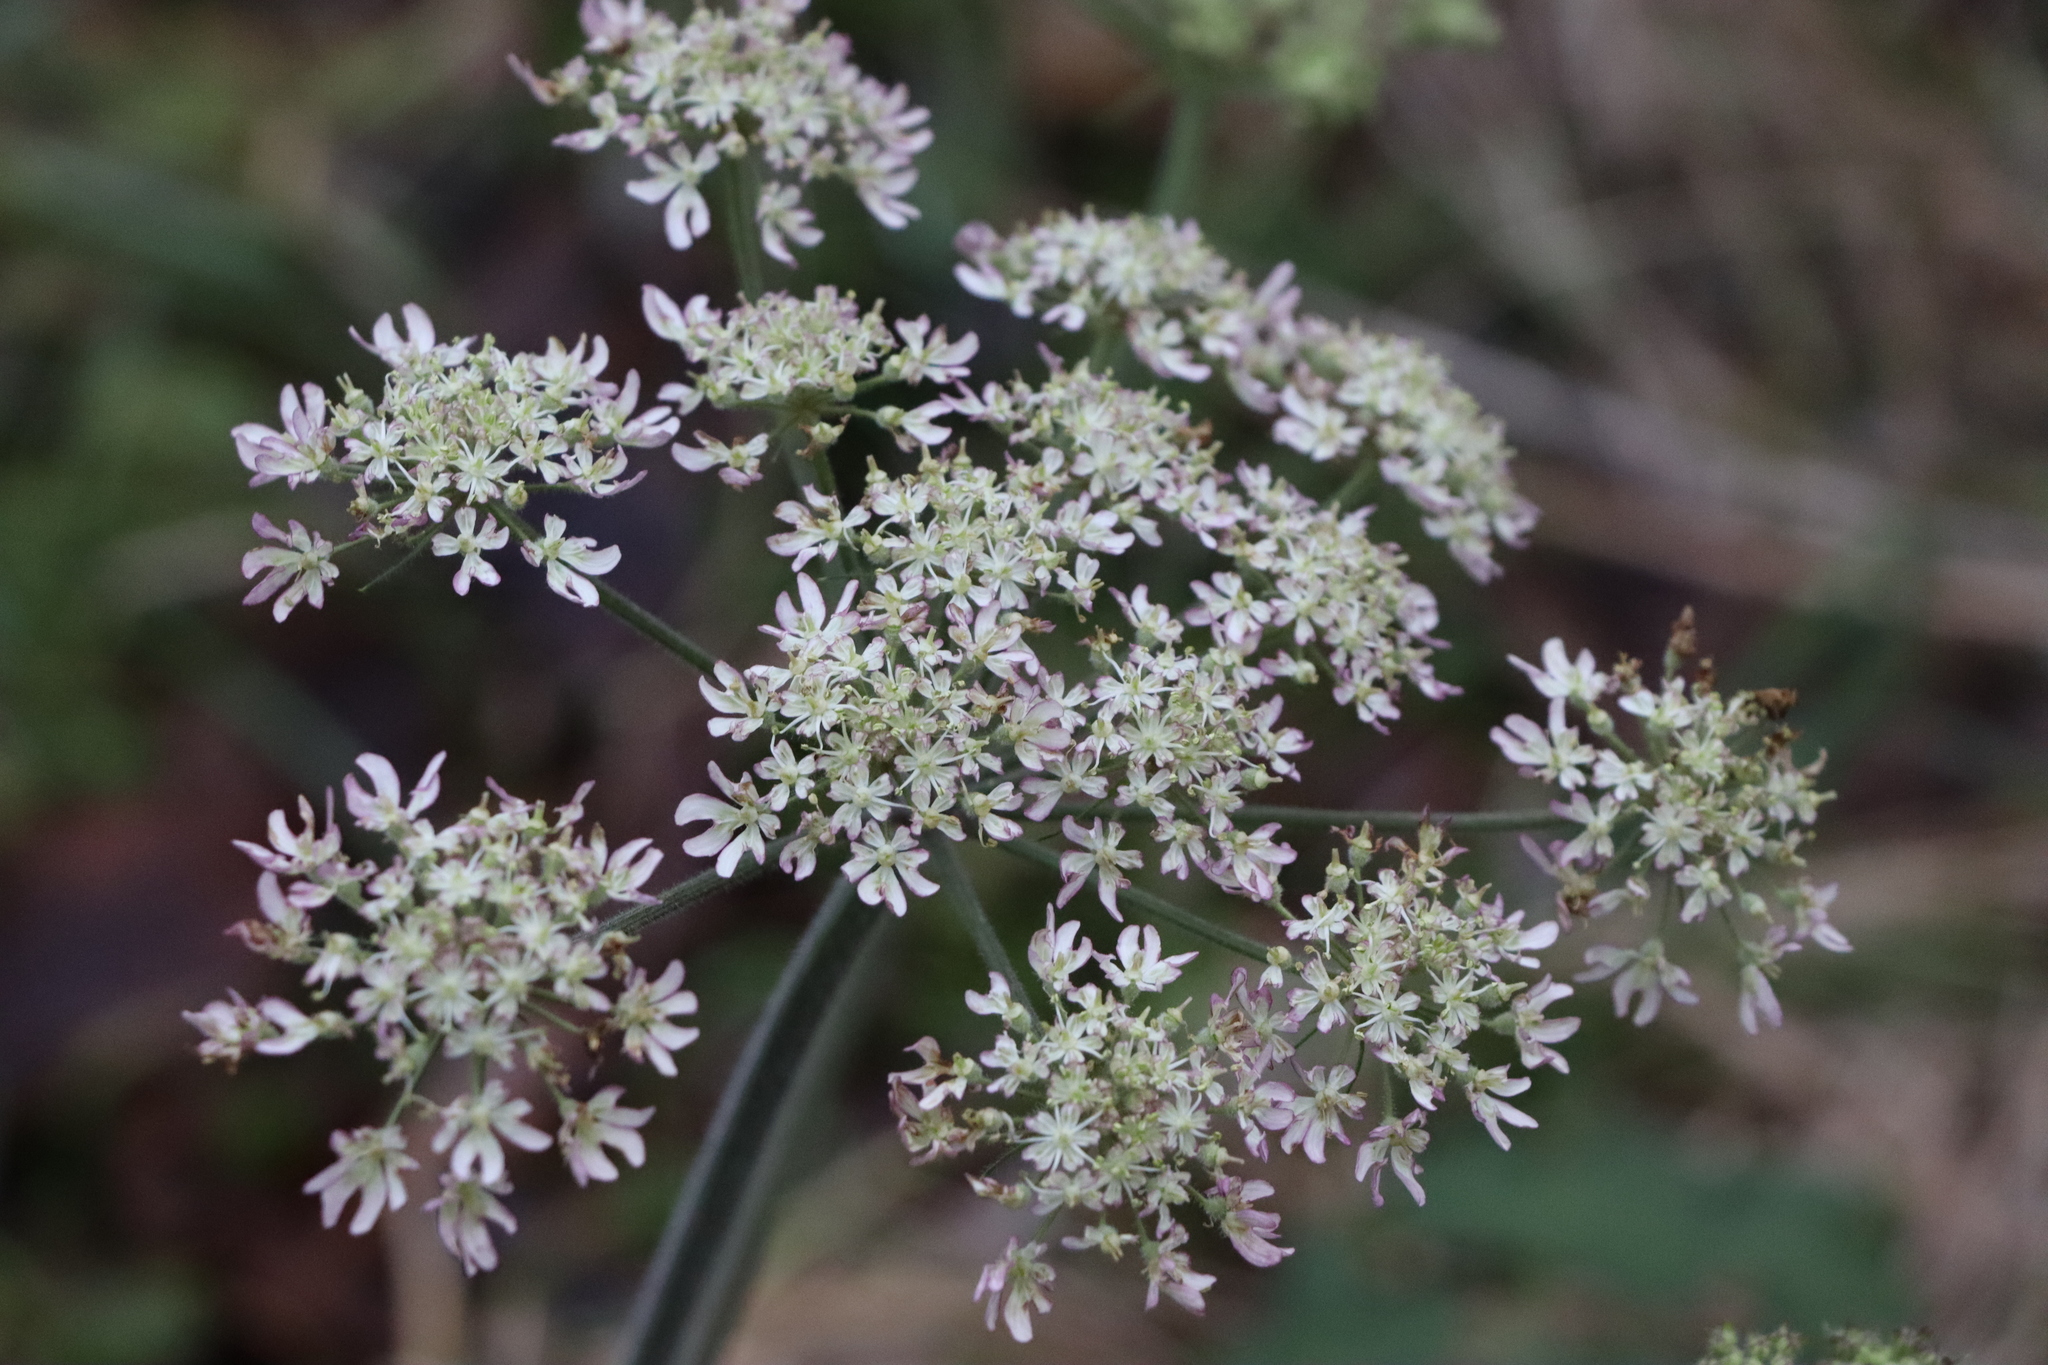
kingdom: Plantae
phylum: Tracheophyta
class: Magnoliopsida
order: Apiales
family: Apiaceae
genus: Heracleum
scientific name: Heracleum sphondylium
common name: Hogweed
